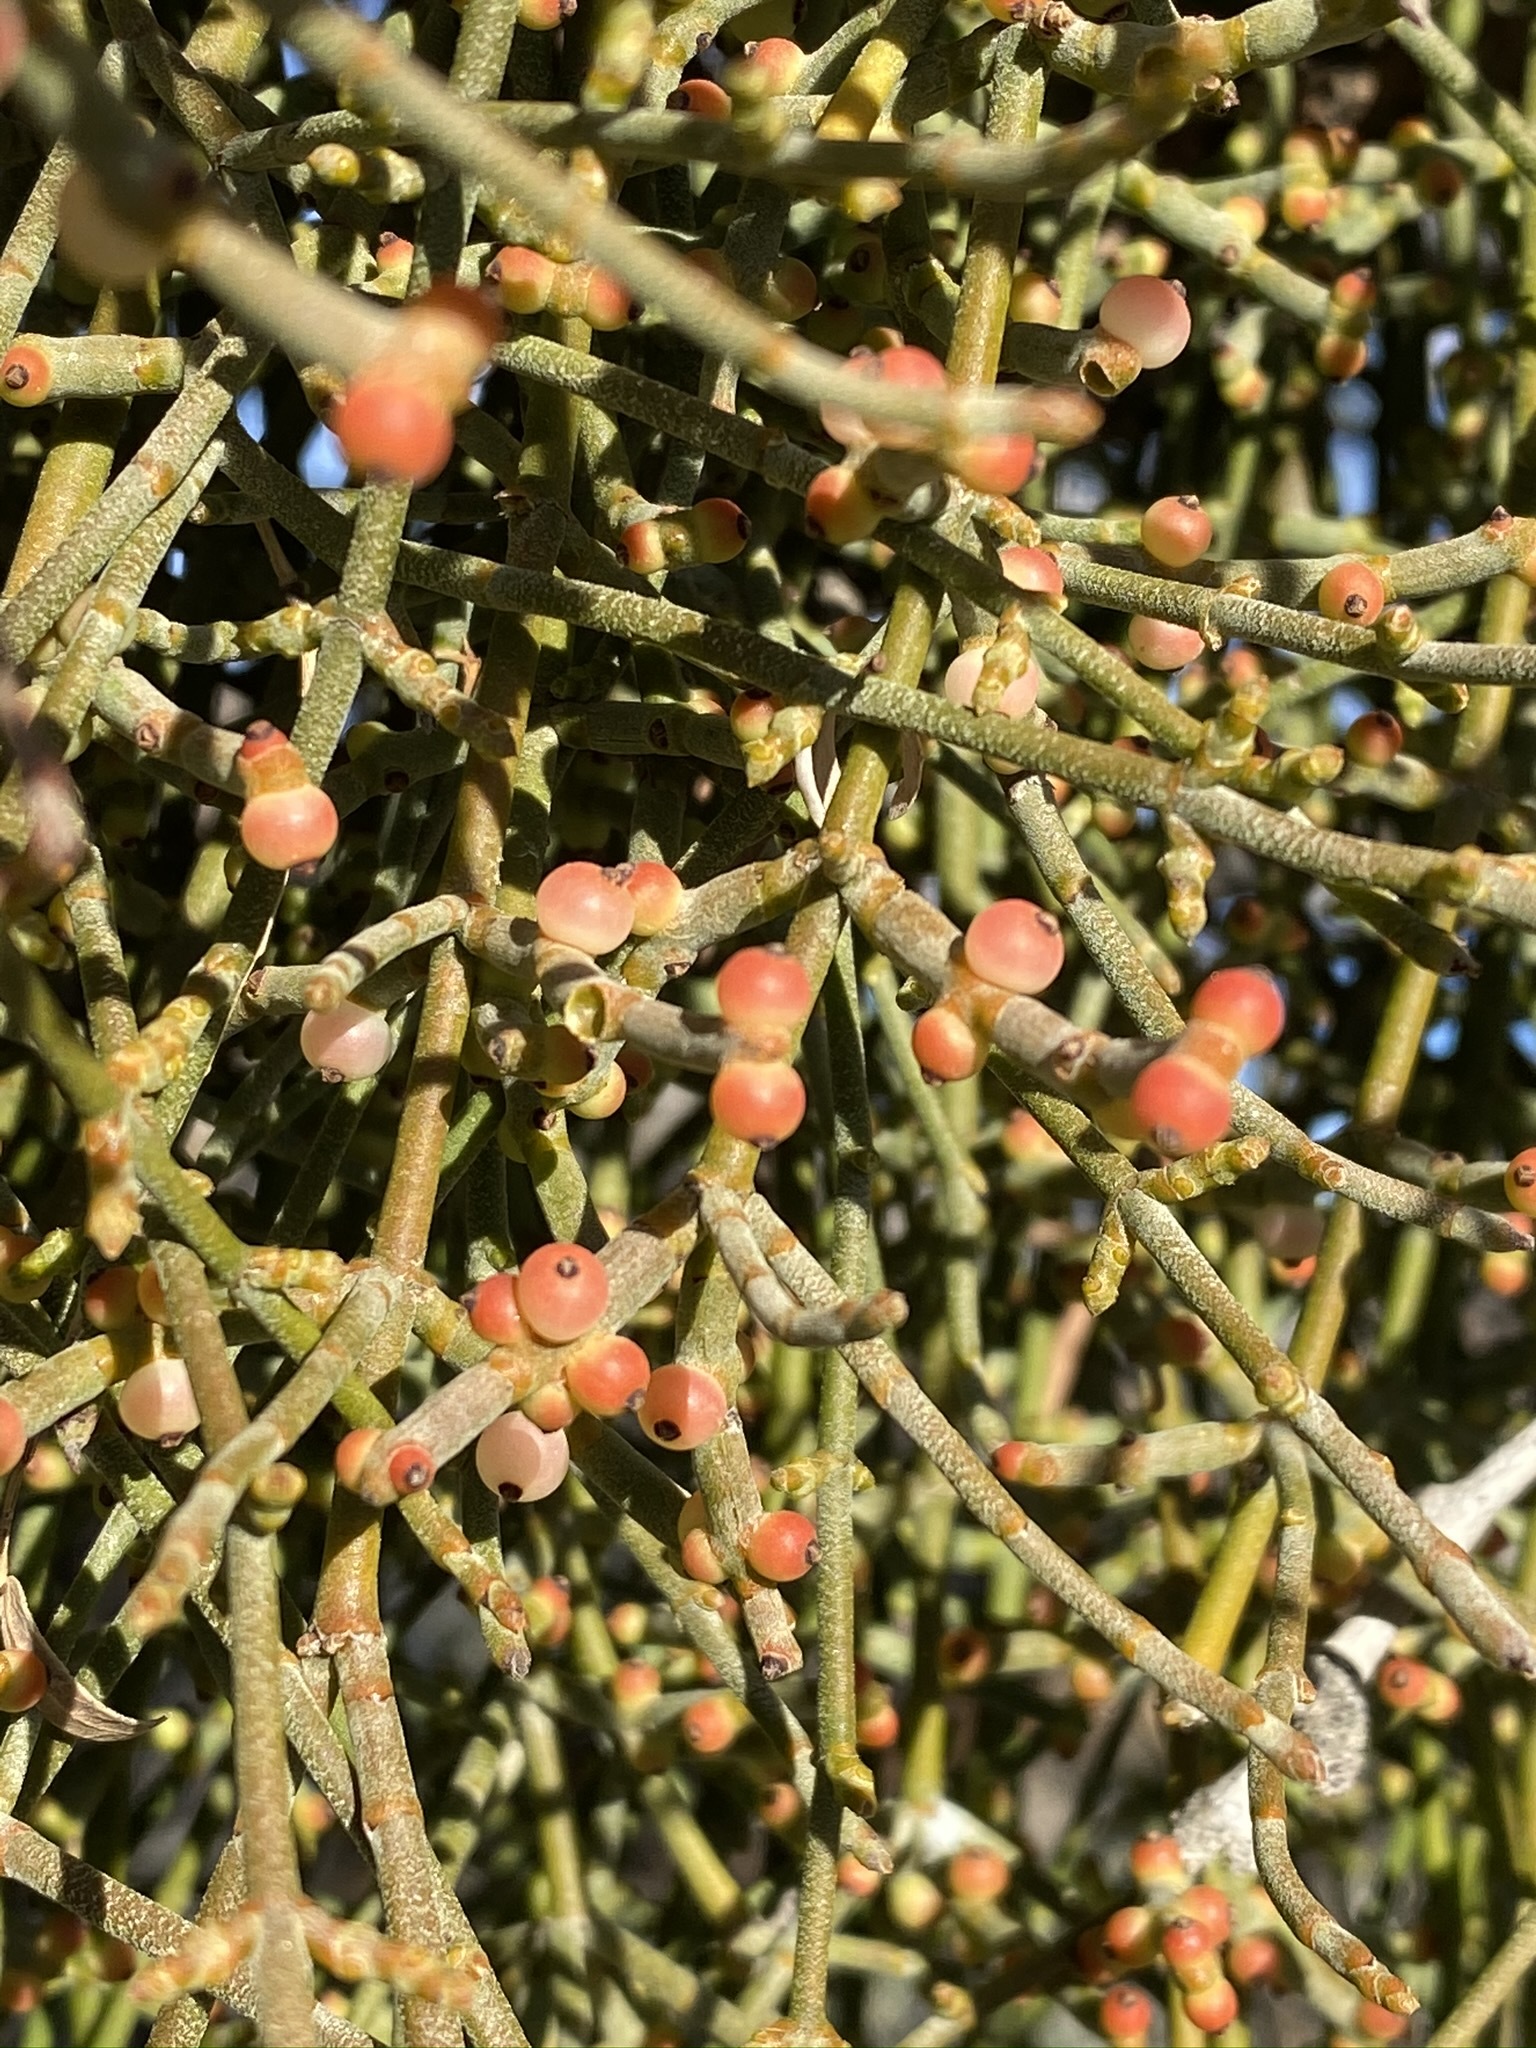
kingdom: Plantae
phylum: Tracheophyta
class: Magnoliopsida
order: Santalales
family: Viscaceae
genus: Phoradendron
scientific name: Phoradendron californicum
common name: Acacia mistletoe
